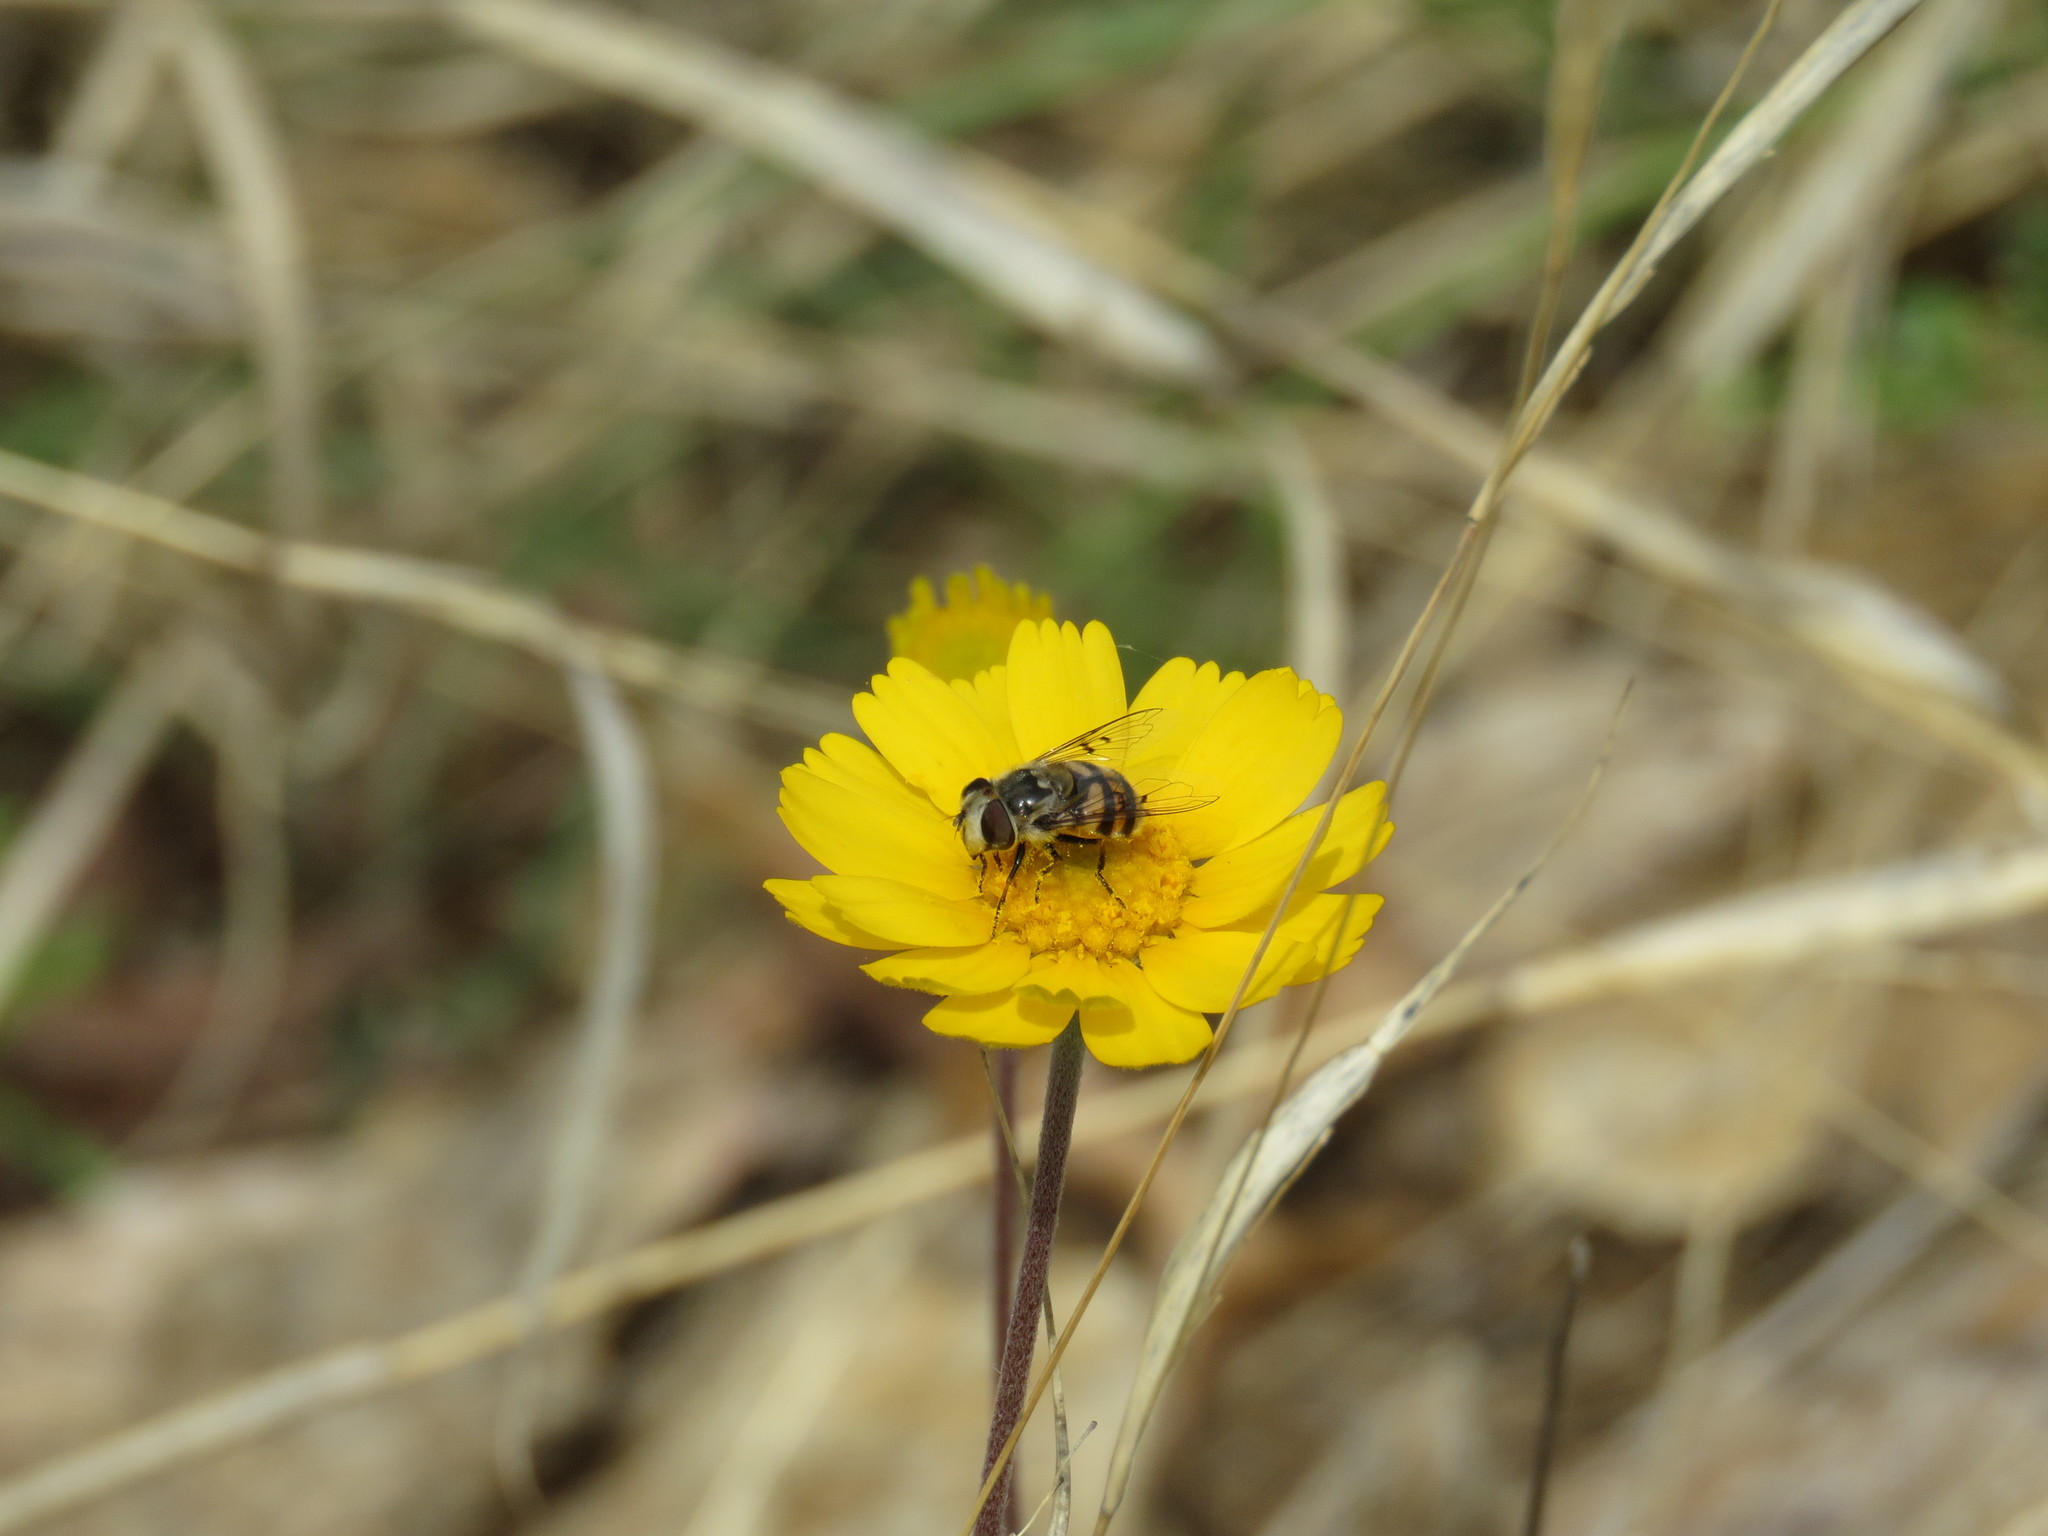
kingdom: Animalia
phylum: Arthropoda
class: Insecta
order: Diptera
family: Syrphidae
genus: Copestylum
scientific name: Copestylum avidum
